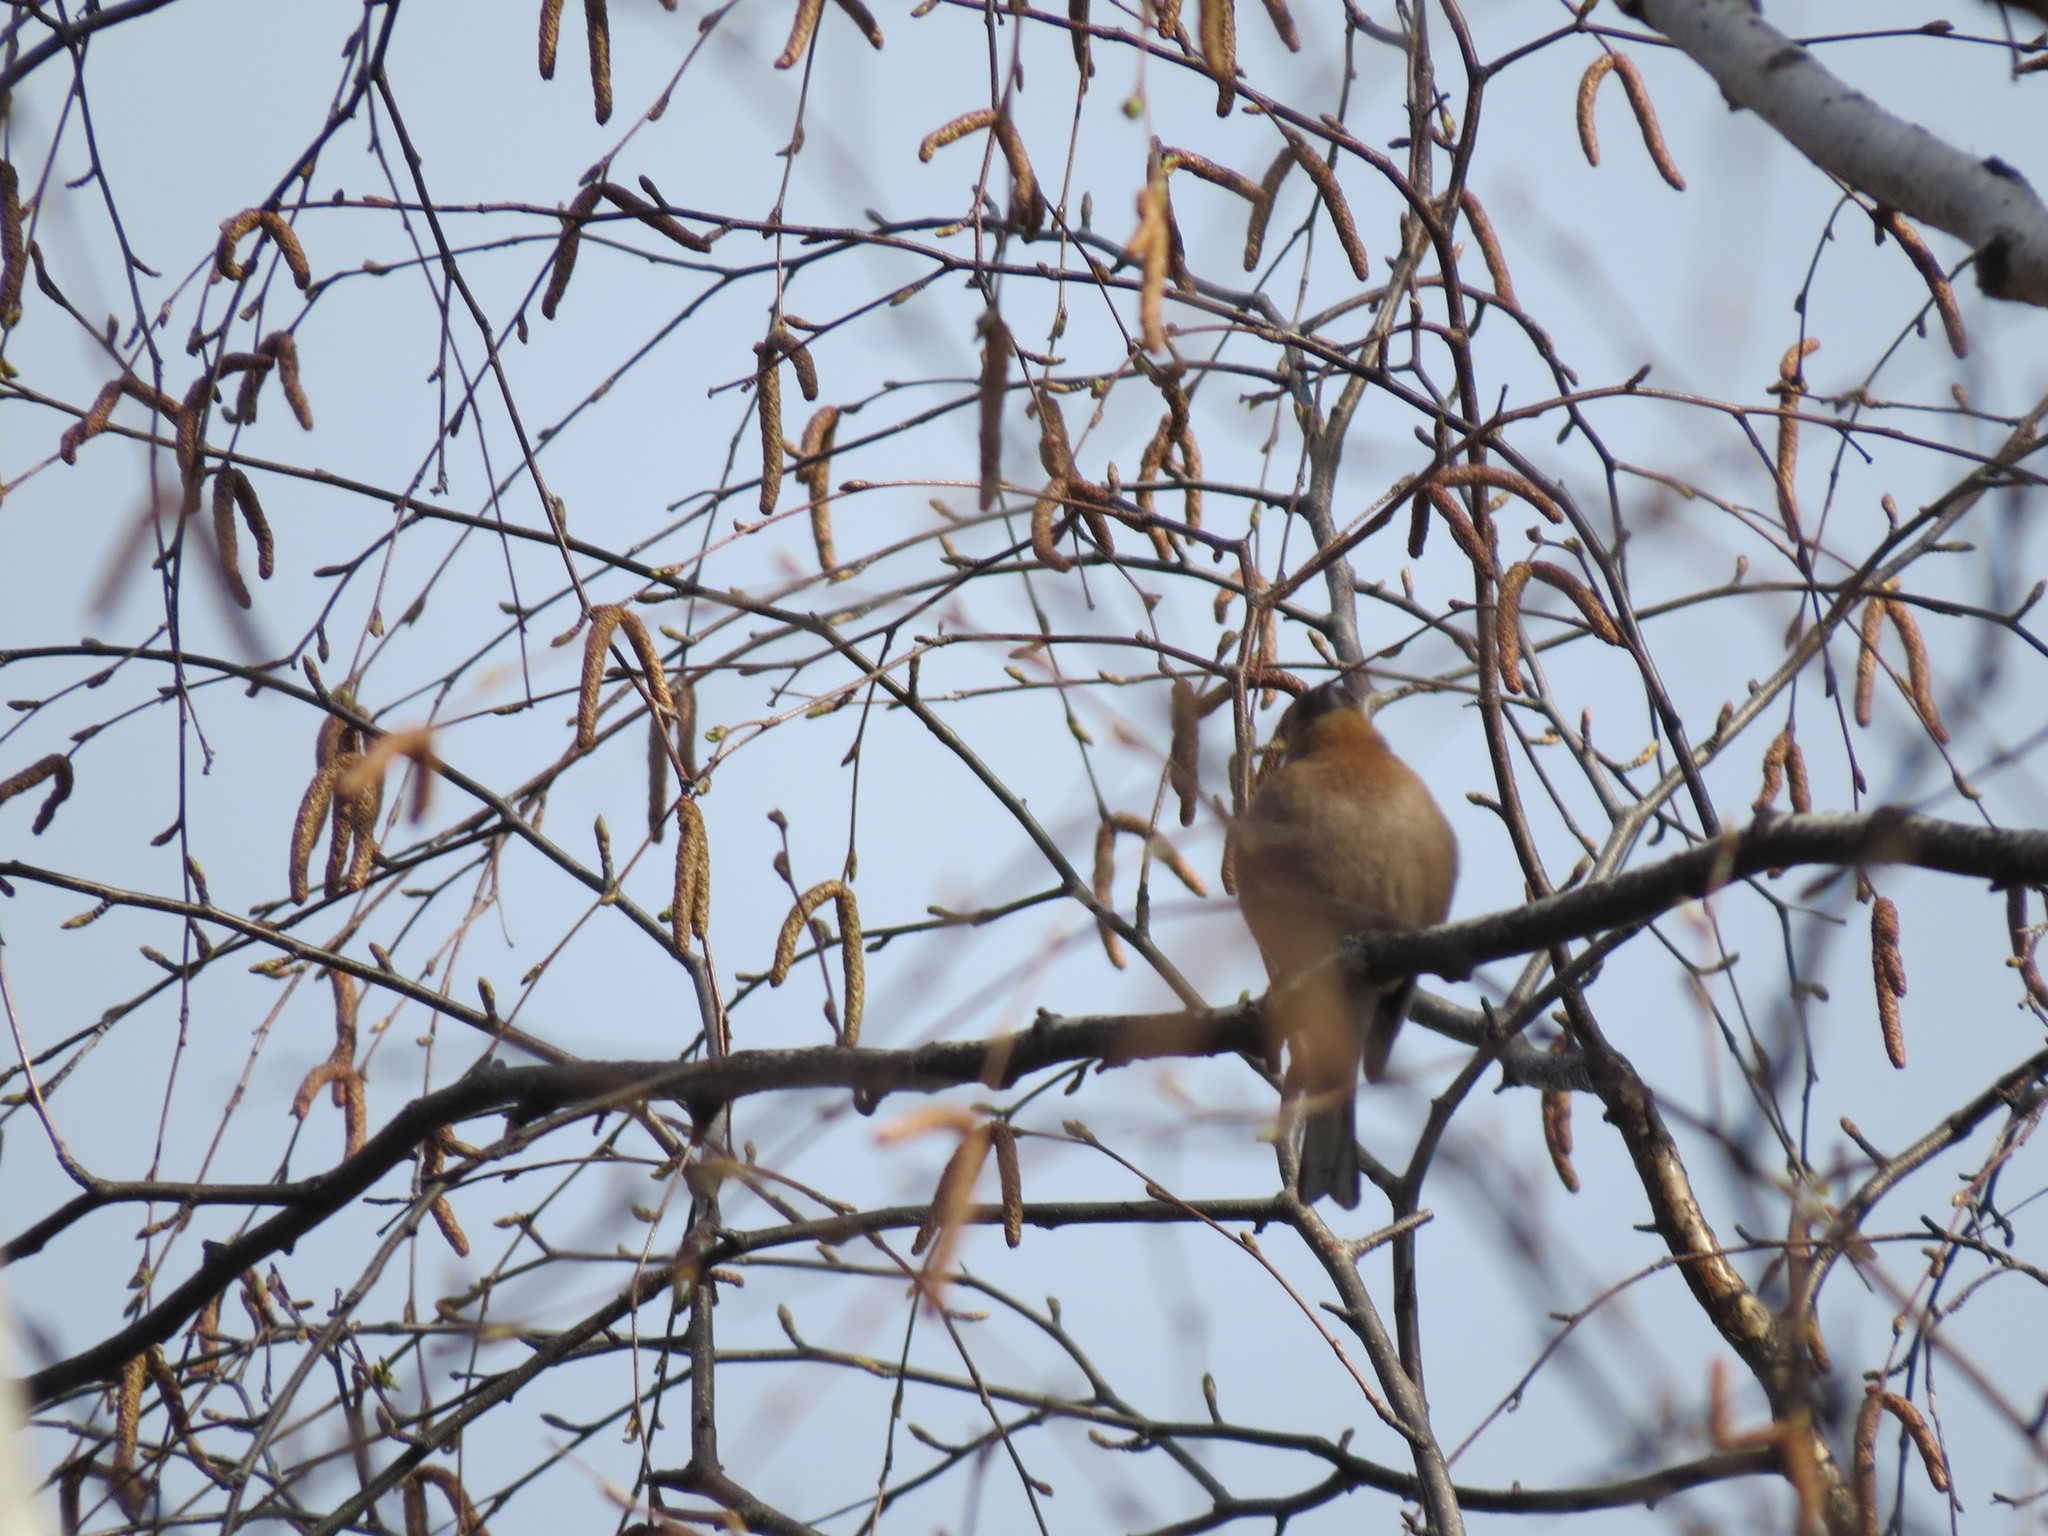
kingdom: Animalia
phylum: Chordata
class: Aves
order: Passeriformes
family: Fringillidae
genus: Fringilla
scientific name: Fringilla coelebs
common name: Common chaffinch
